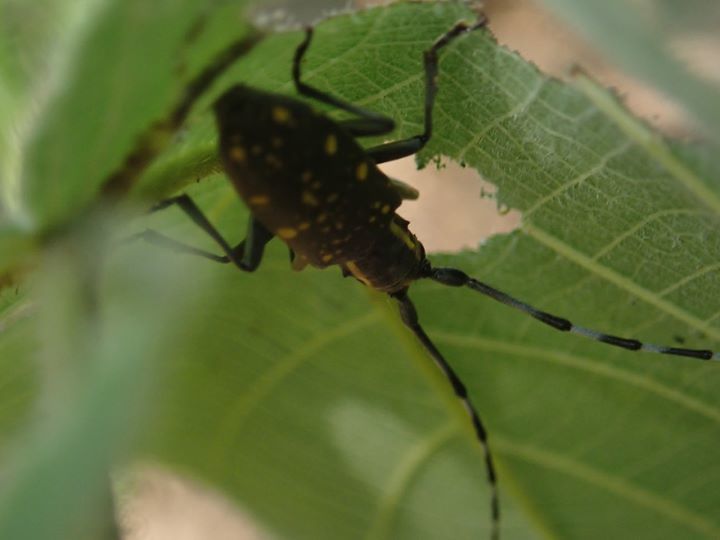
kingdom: Animalia
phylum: Arthropoda
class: Insecta
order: Coleoptera
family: Cerambycidae
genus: Psacothea
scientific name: Psacothea hilaris
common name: Yellow-spotted longicorn beetle
